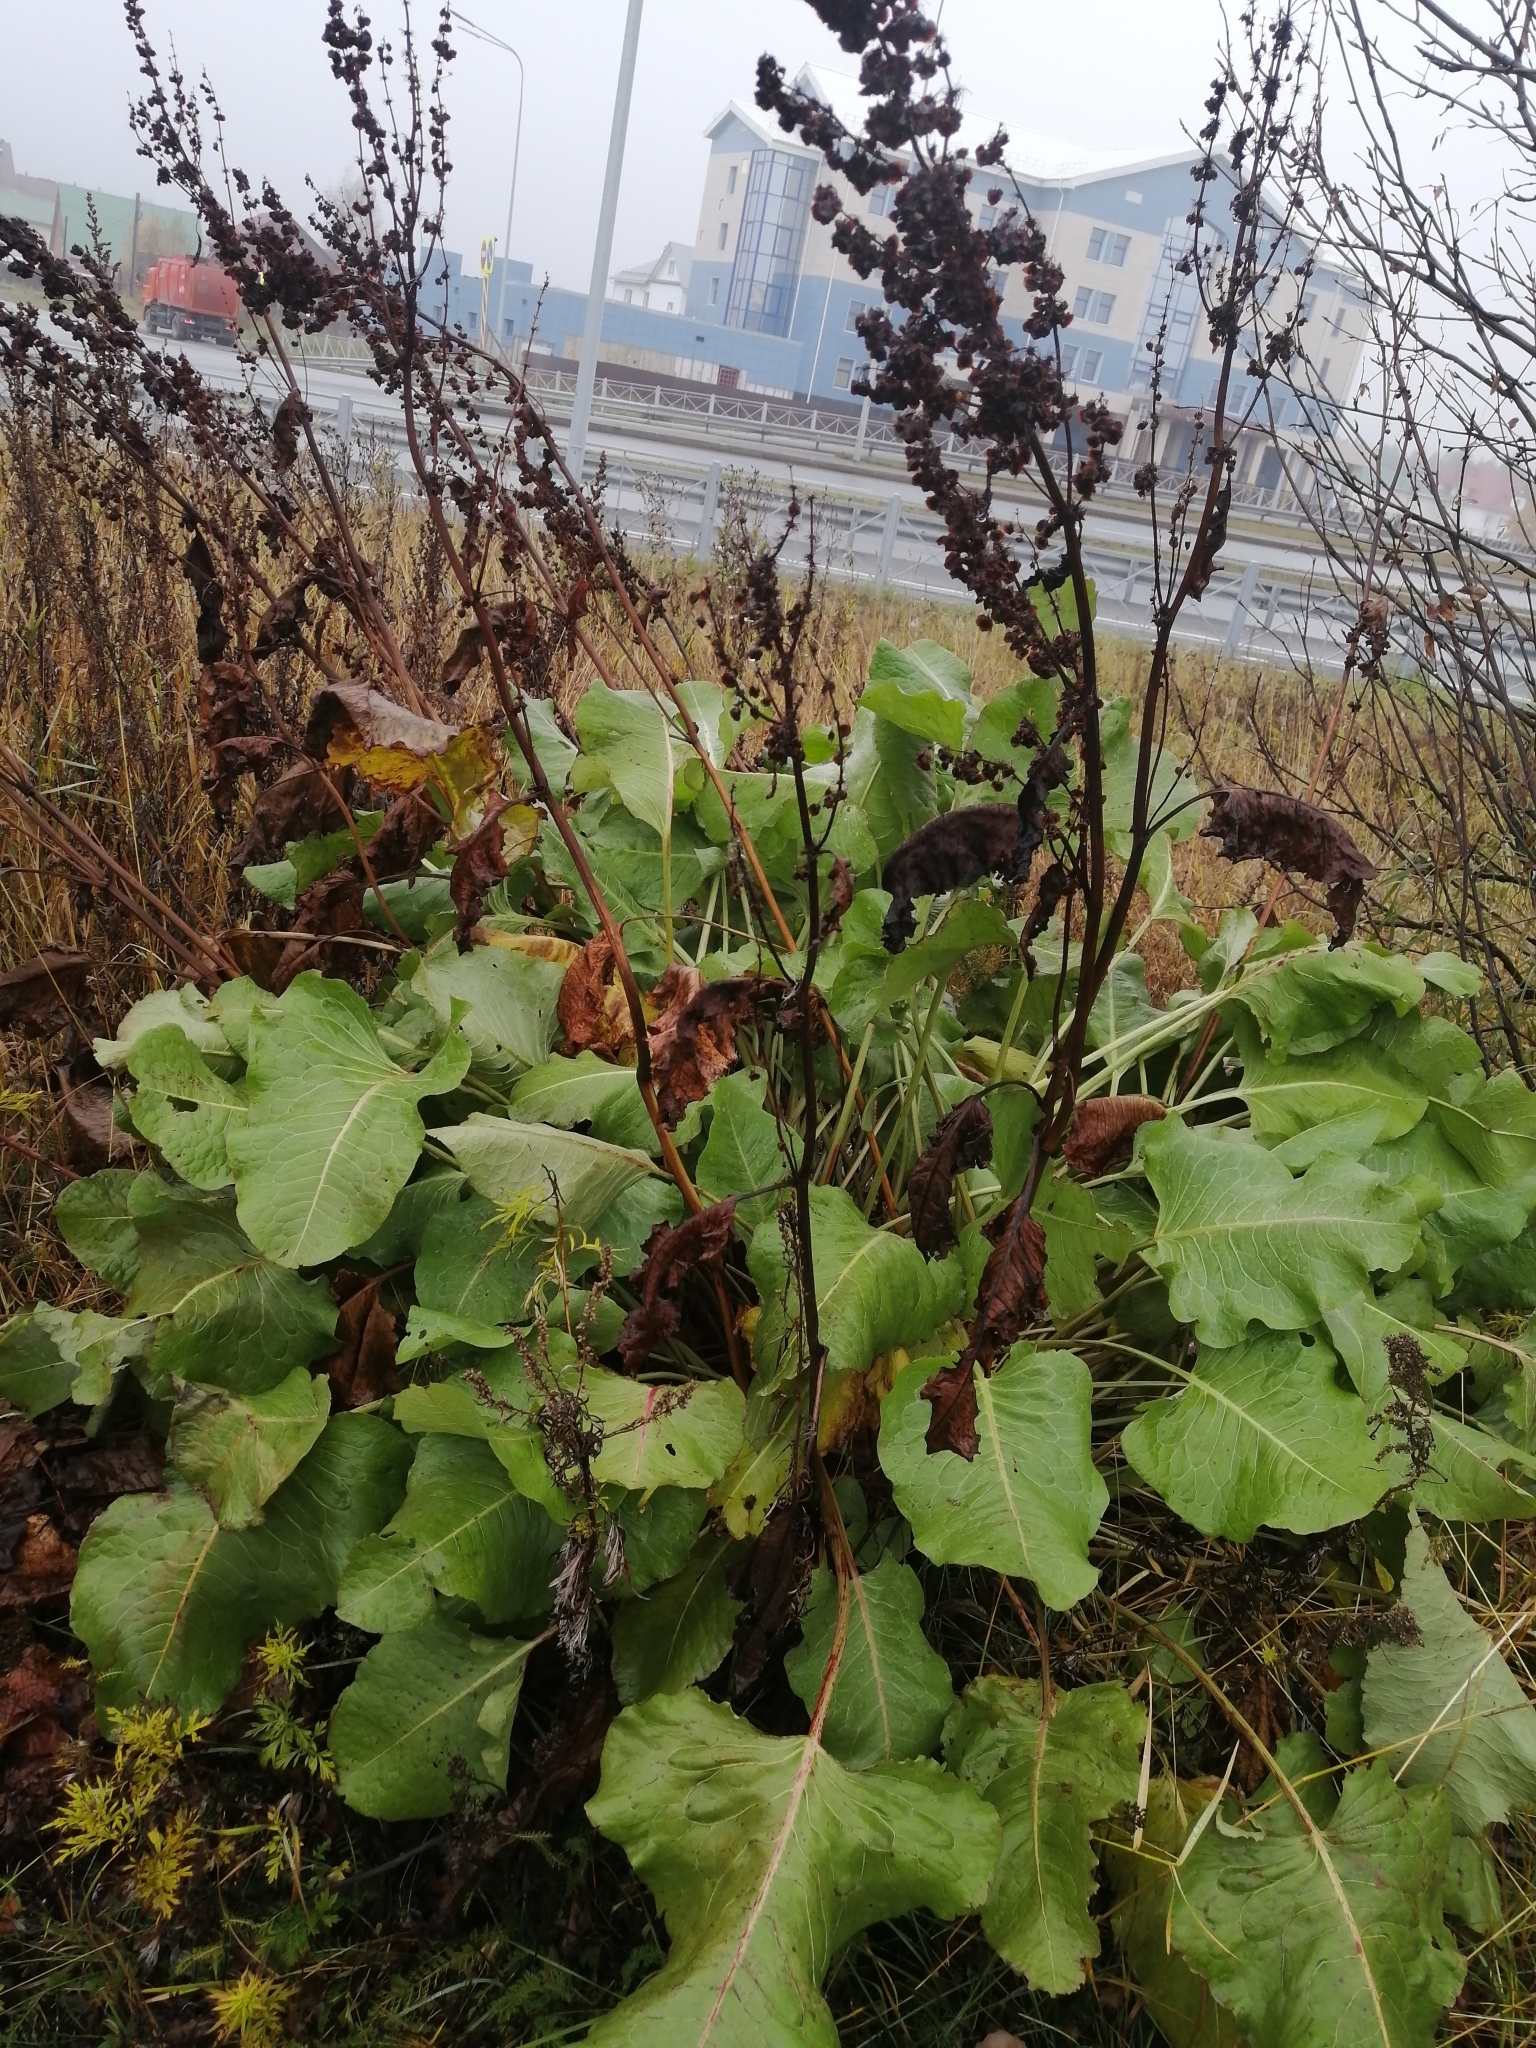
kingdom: Plantae
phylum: Tracheophyta
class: Magnoliopsida
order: Caryophyllales
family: Polygonaceae
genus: Rumex
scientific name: Rumex confertus
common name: Russian dock
